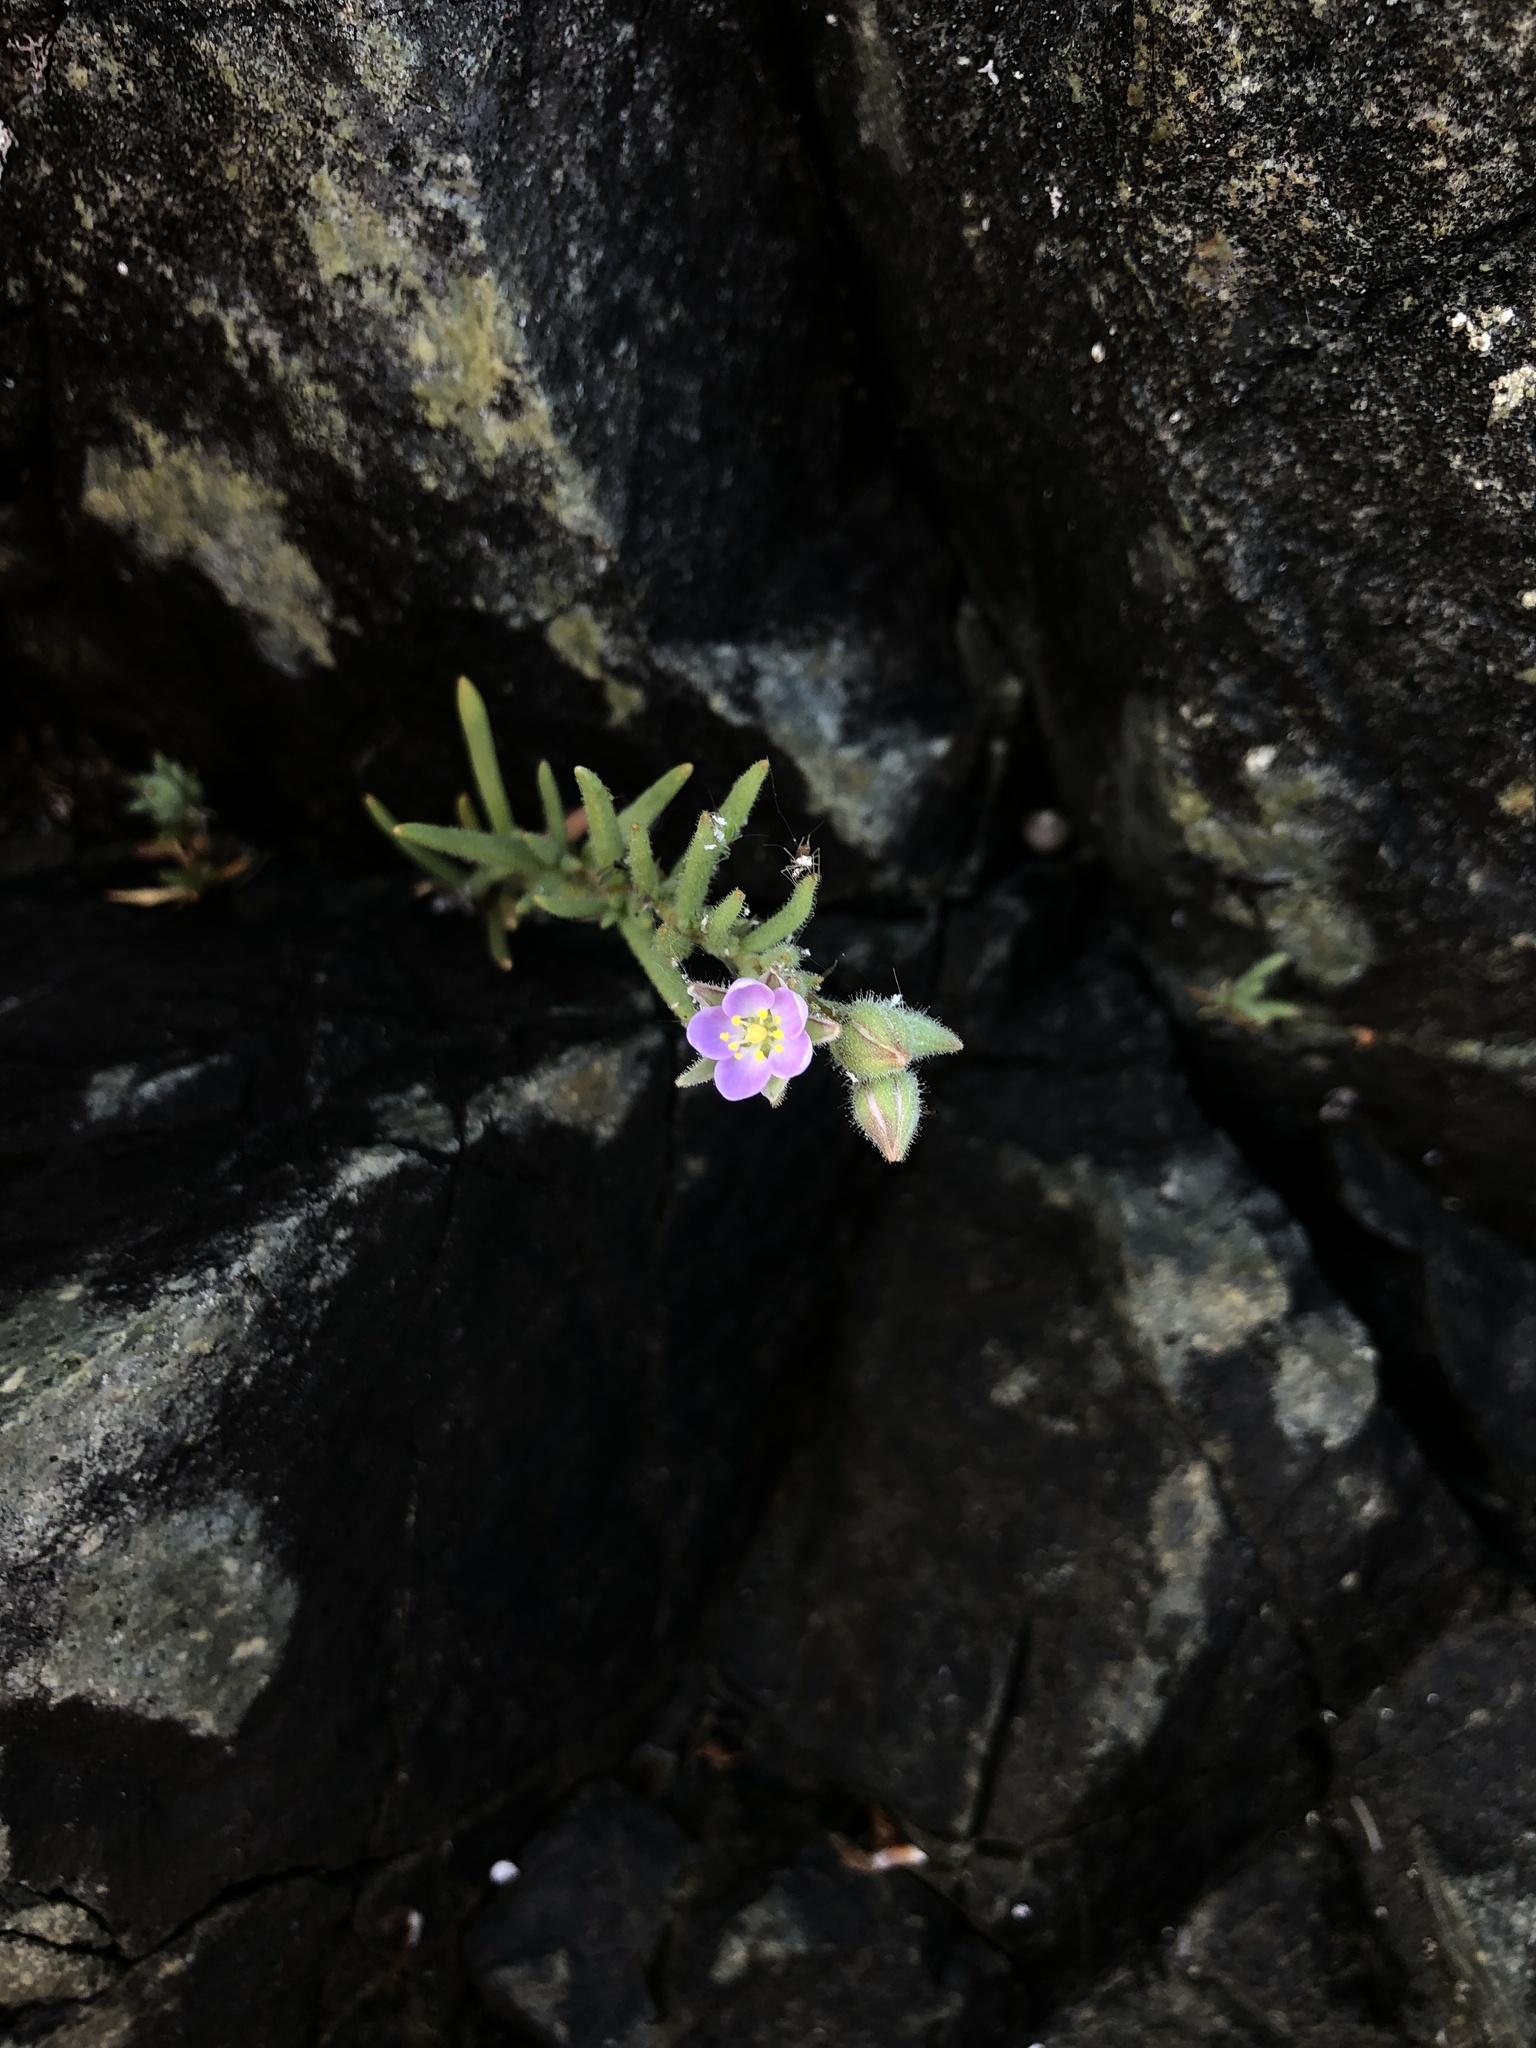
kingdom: Plantae
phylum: Tracheophyta
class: Magnoliopsida
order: Caryophyllales
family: Caryophyllaceae
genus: Spergularia
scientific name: Spergularia macrotheca
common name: Beach sand-spurrey
